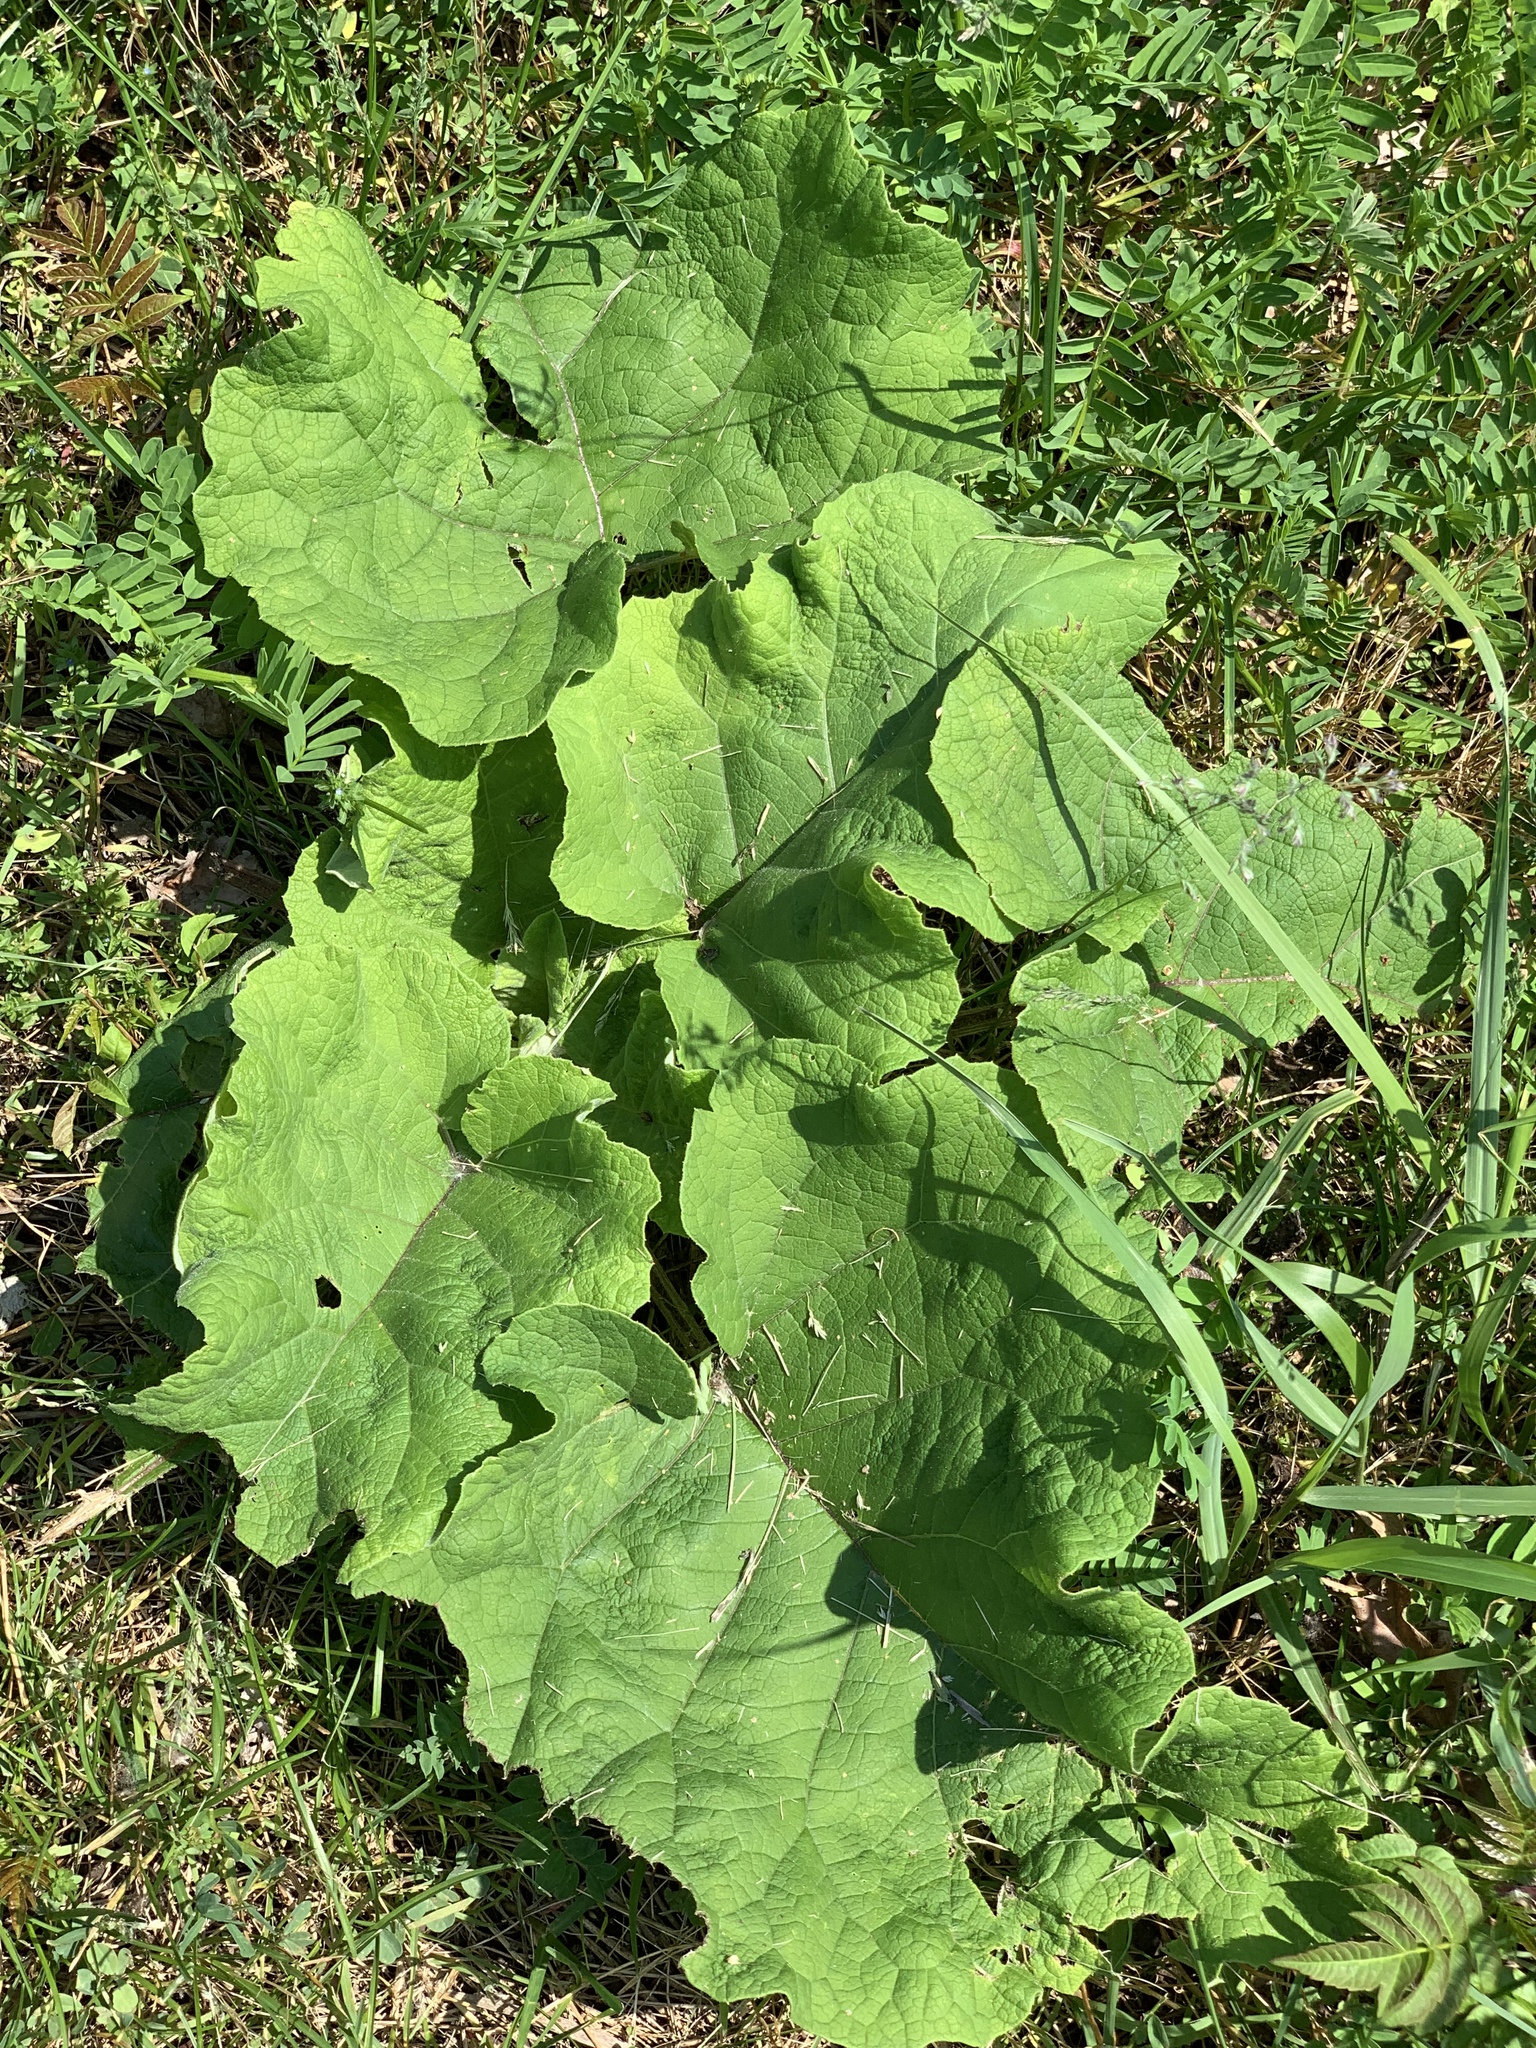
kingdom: Plantae
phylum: Tracheophyta
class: Magnoliopsida
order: Asterales
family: Asteraceae
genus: Arctium
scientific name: Arctium
